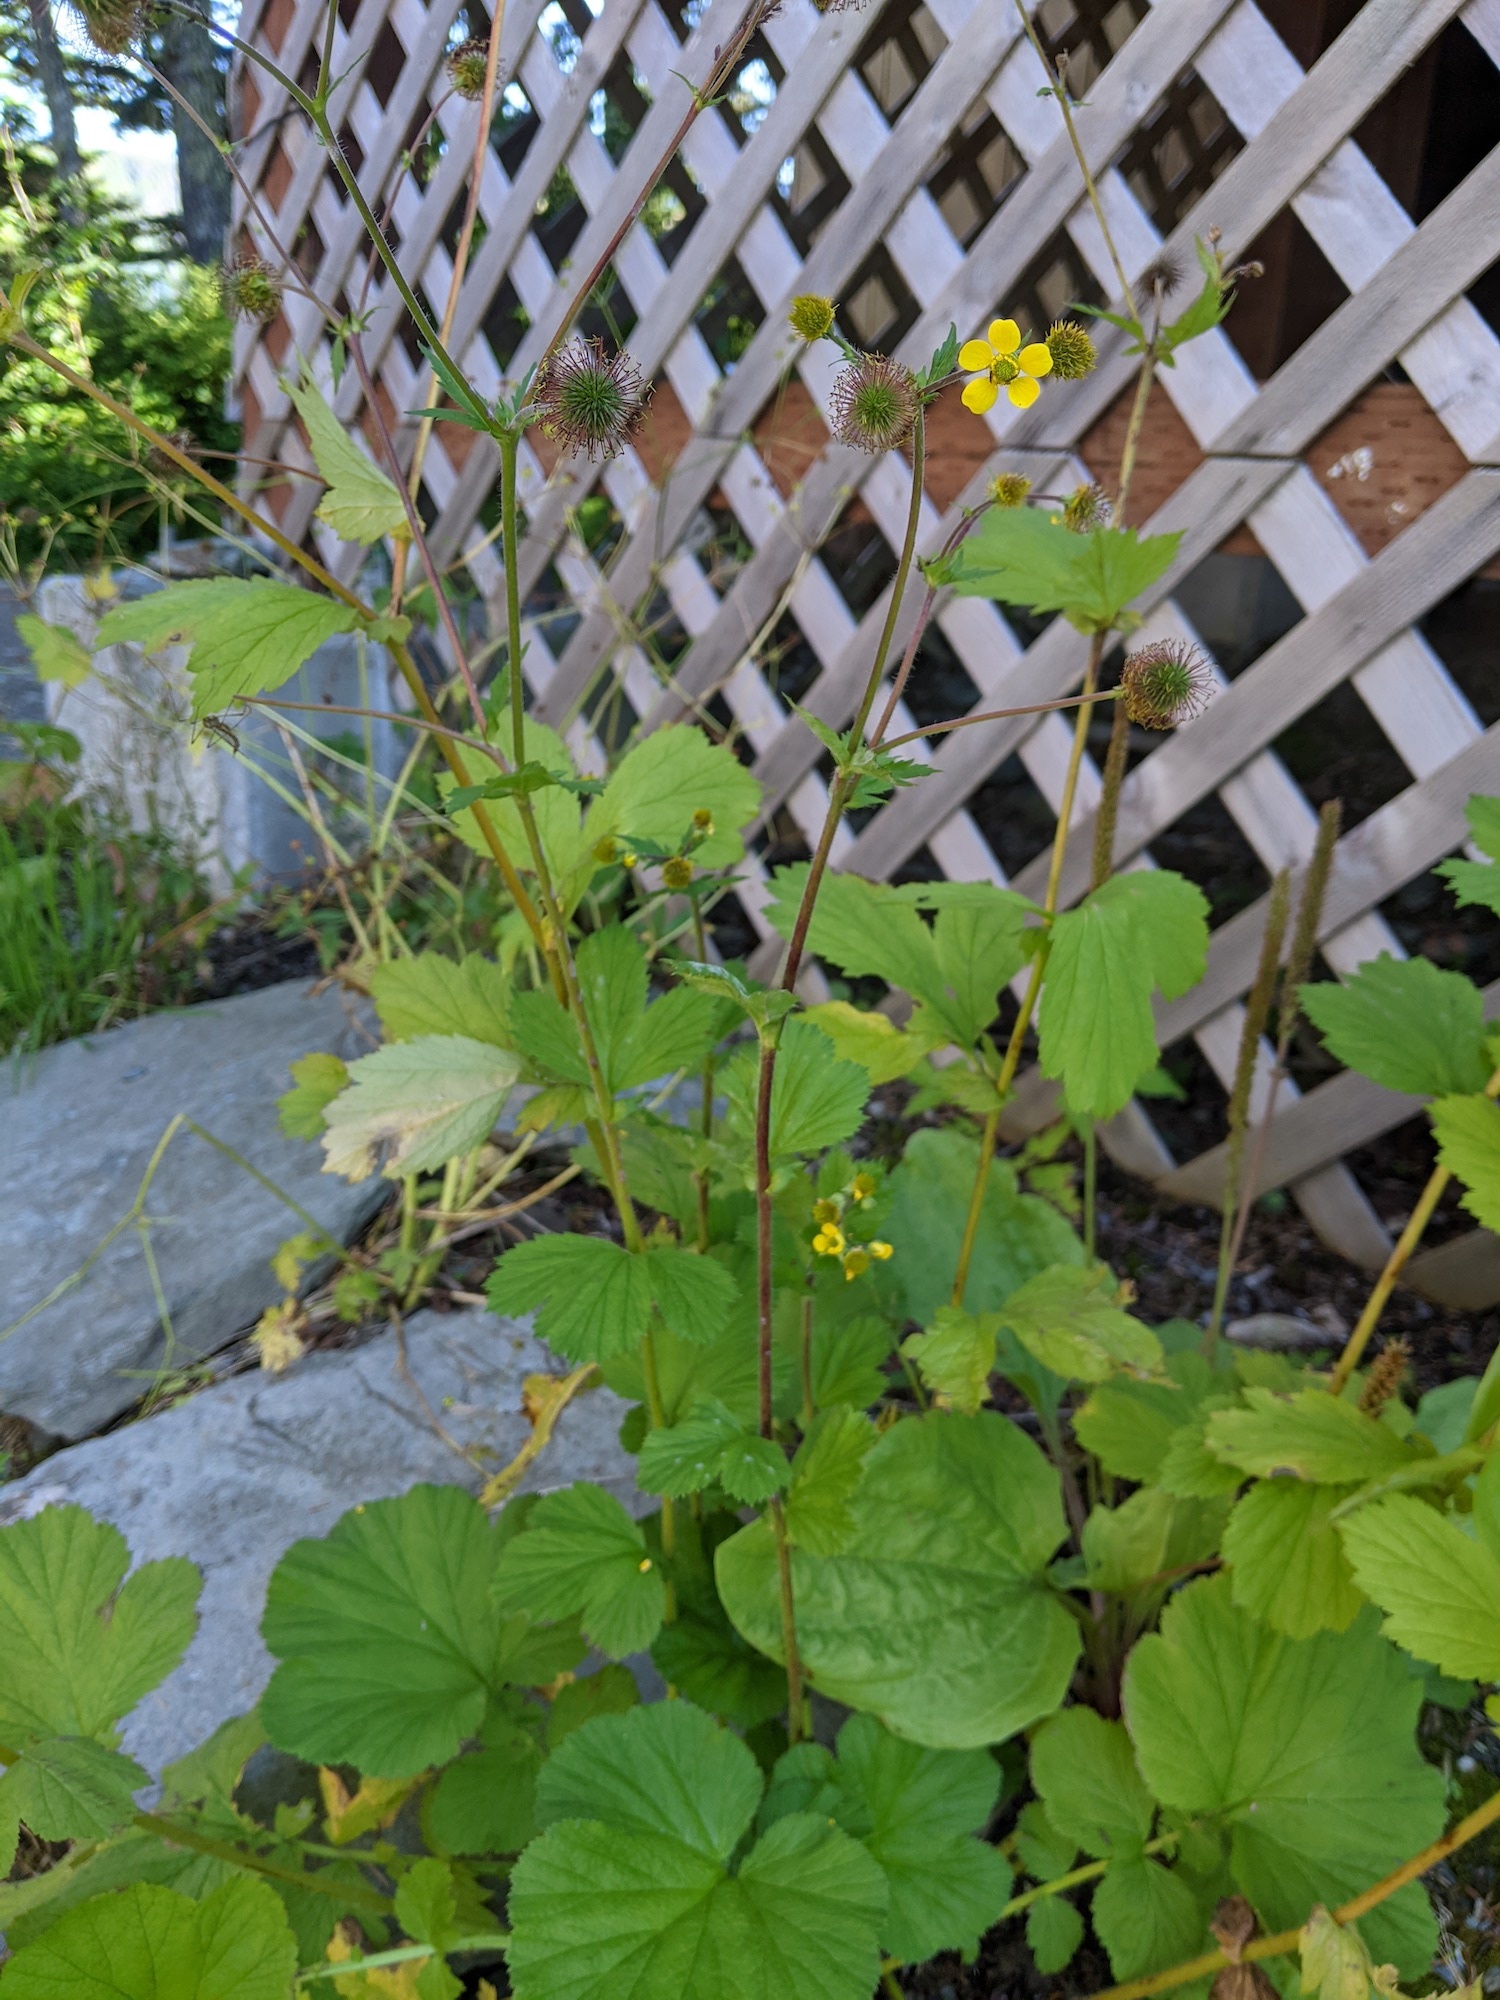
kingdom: Plantae
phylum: Tracheophyta
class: Magnoliopsida
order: Rosales
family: Rosaceae
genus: Geum
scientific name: Geum macrophyllum
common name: Large-leaved avens
